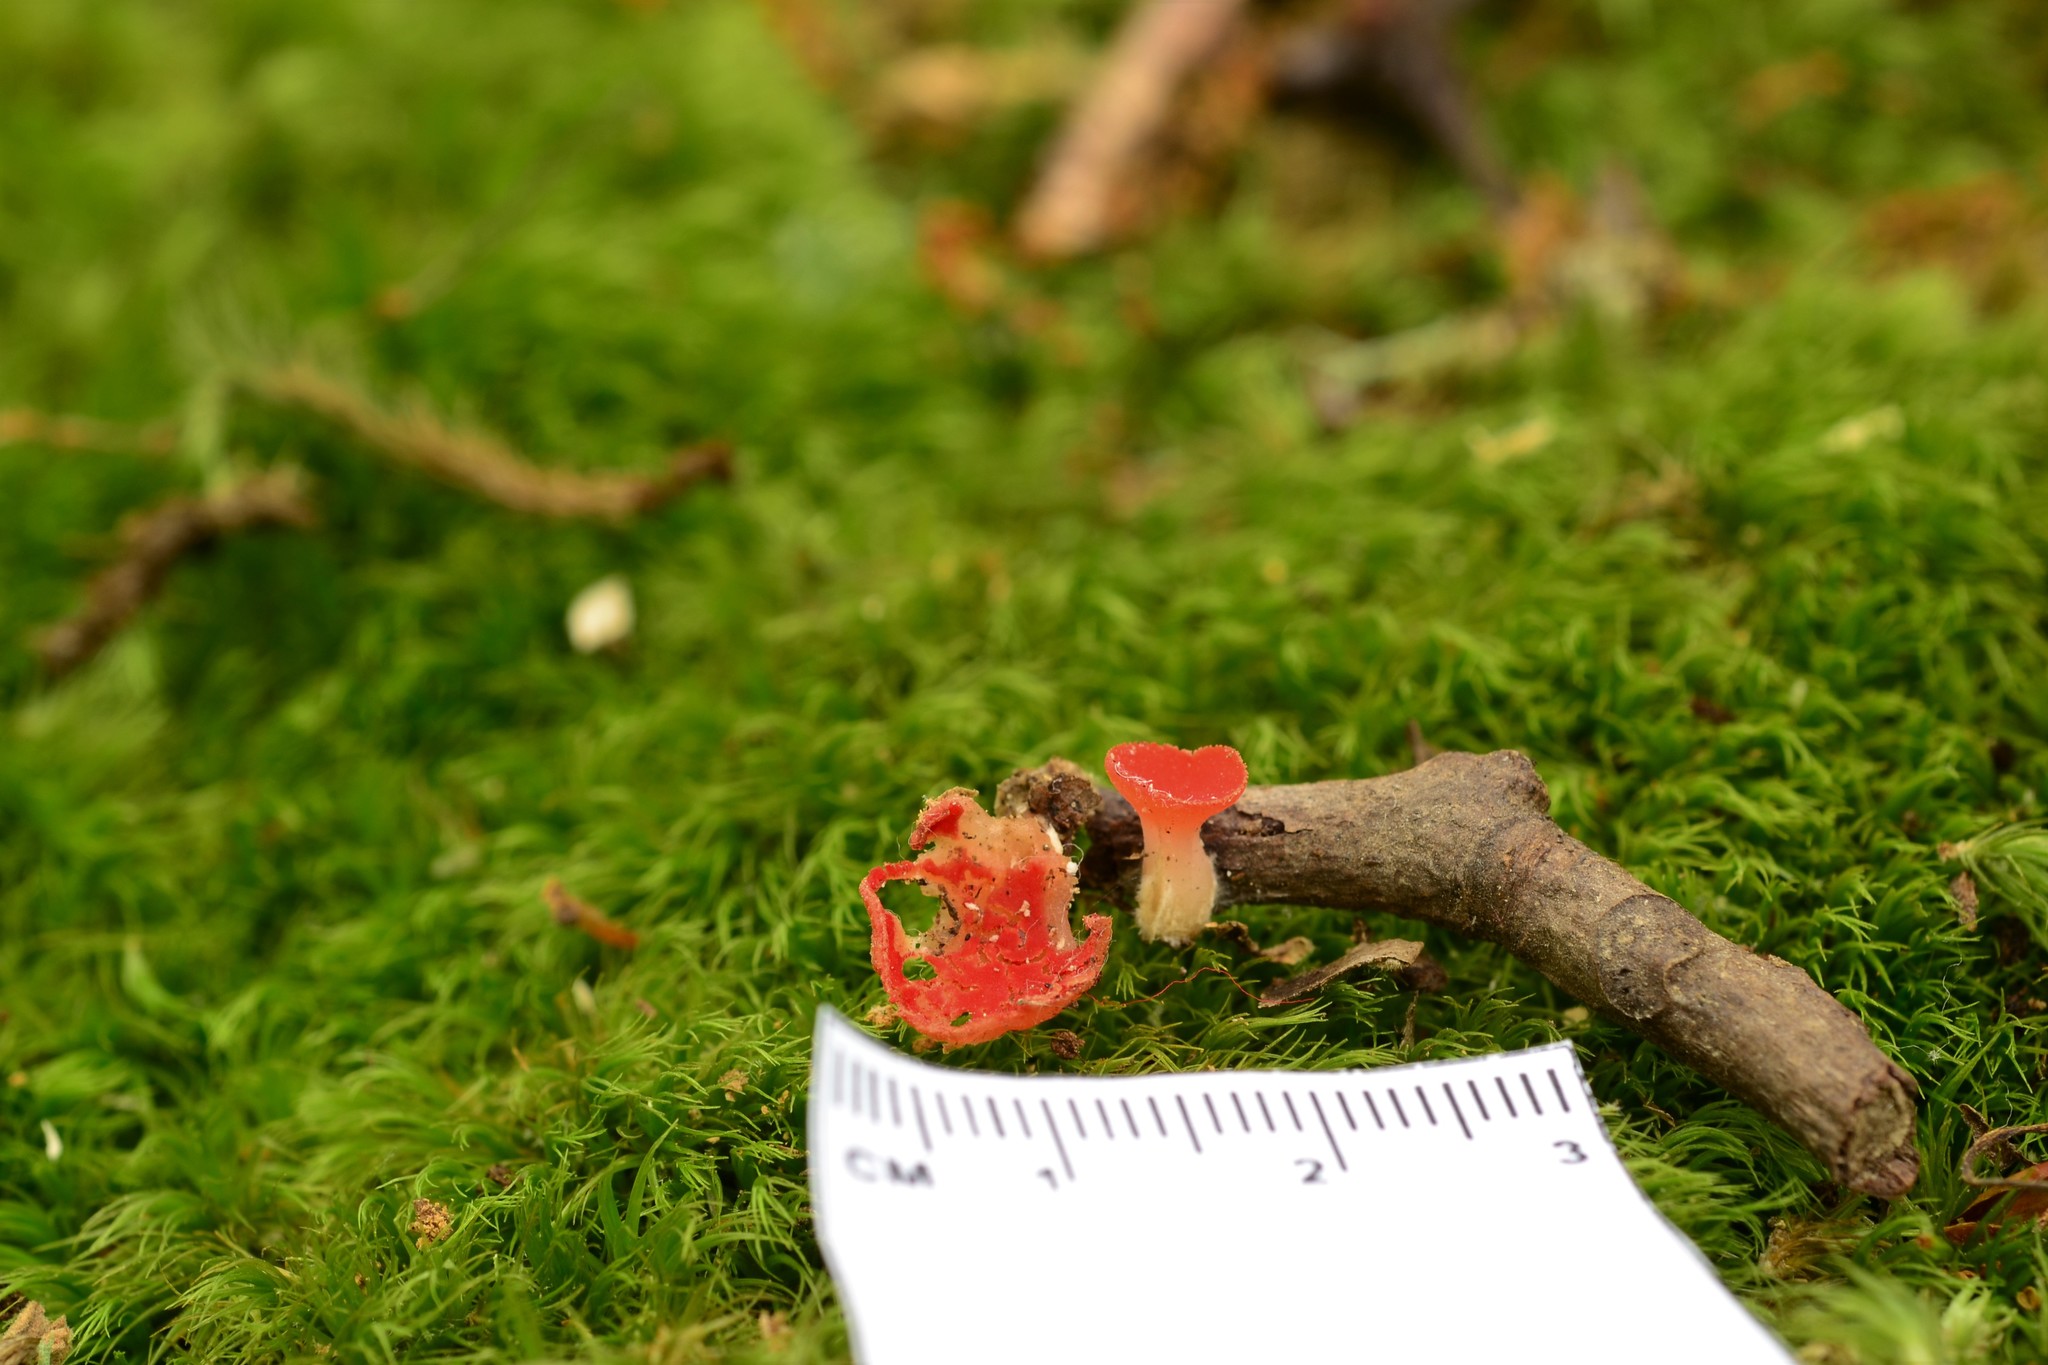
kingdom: Fungi
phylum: Ascomycota
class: Pezizomycetes
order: Pezizales
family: Sarcoscyphaceae
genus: Sarcoscypha
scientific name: Sarcoscypha occidentalis
